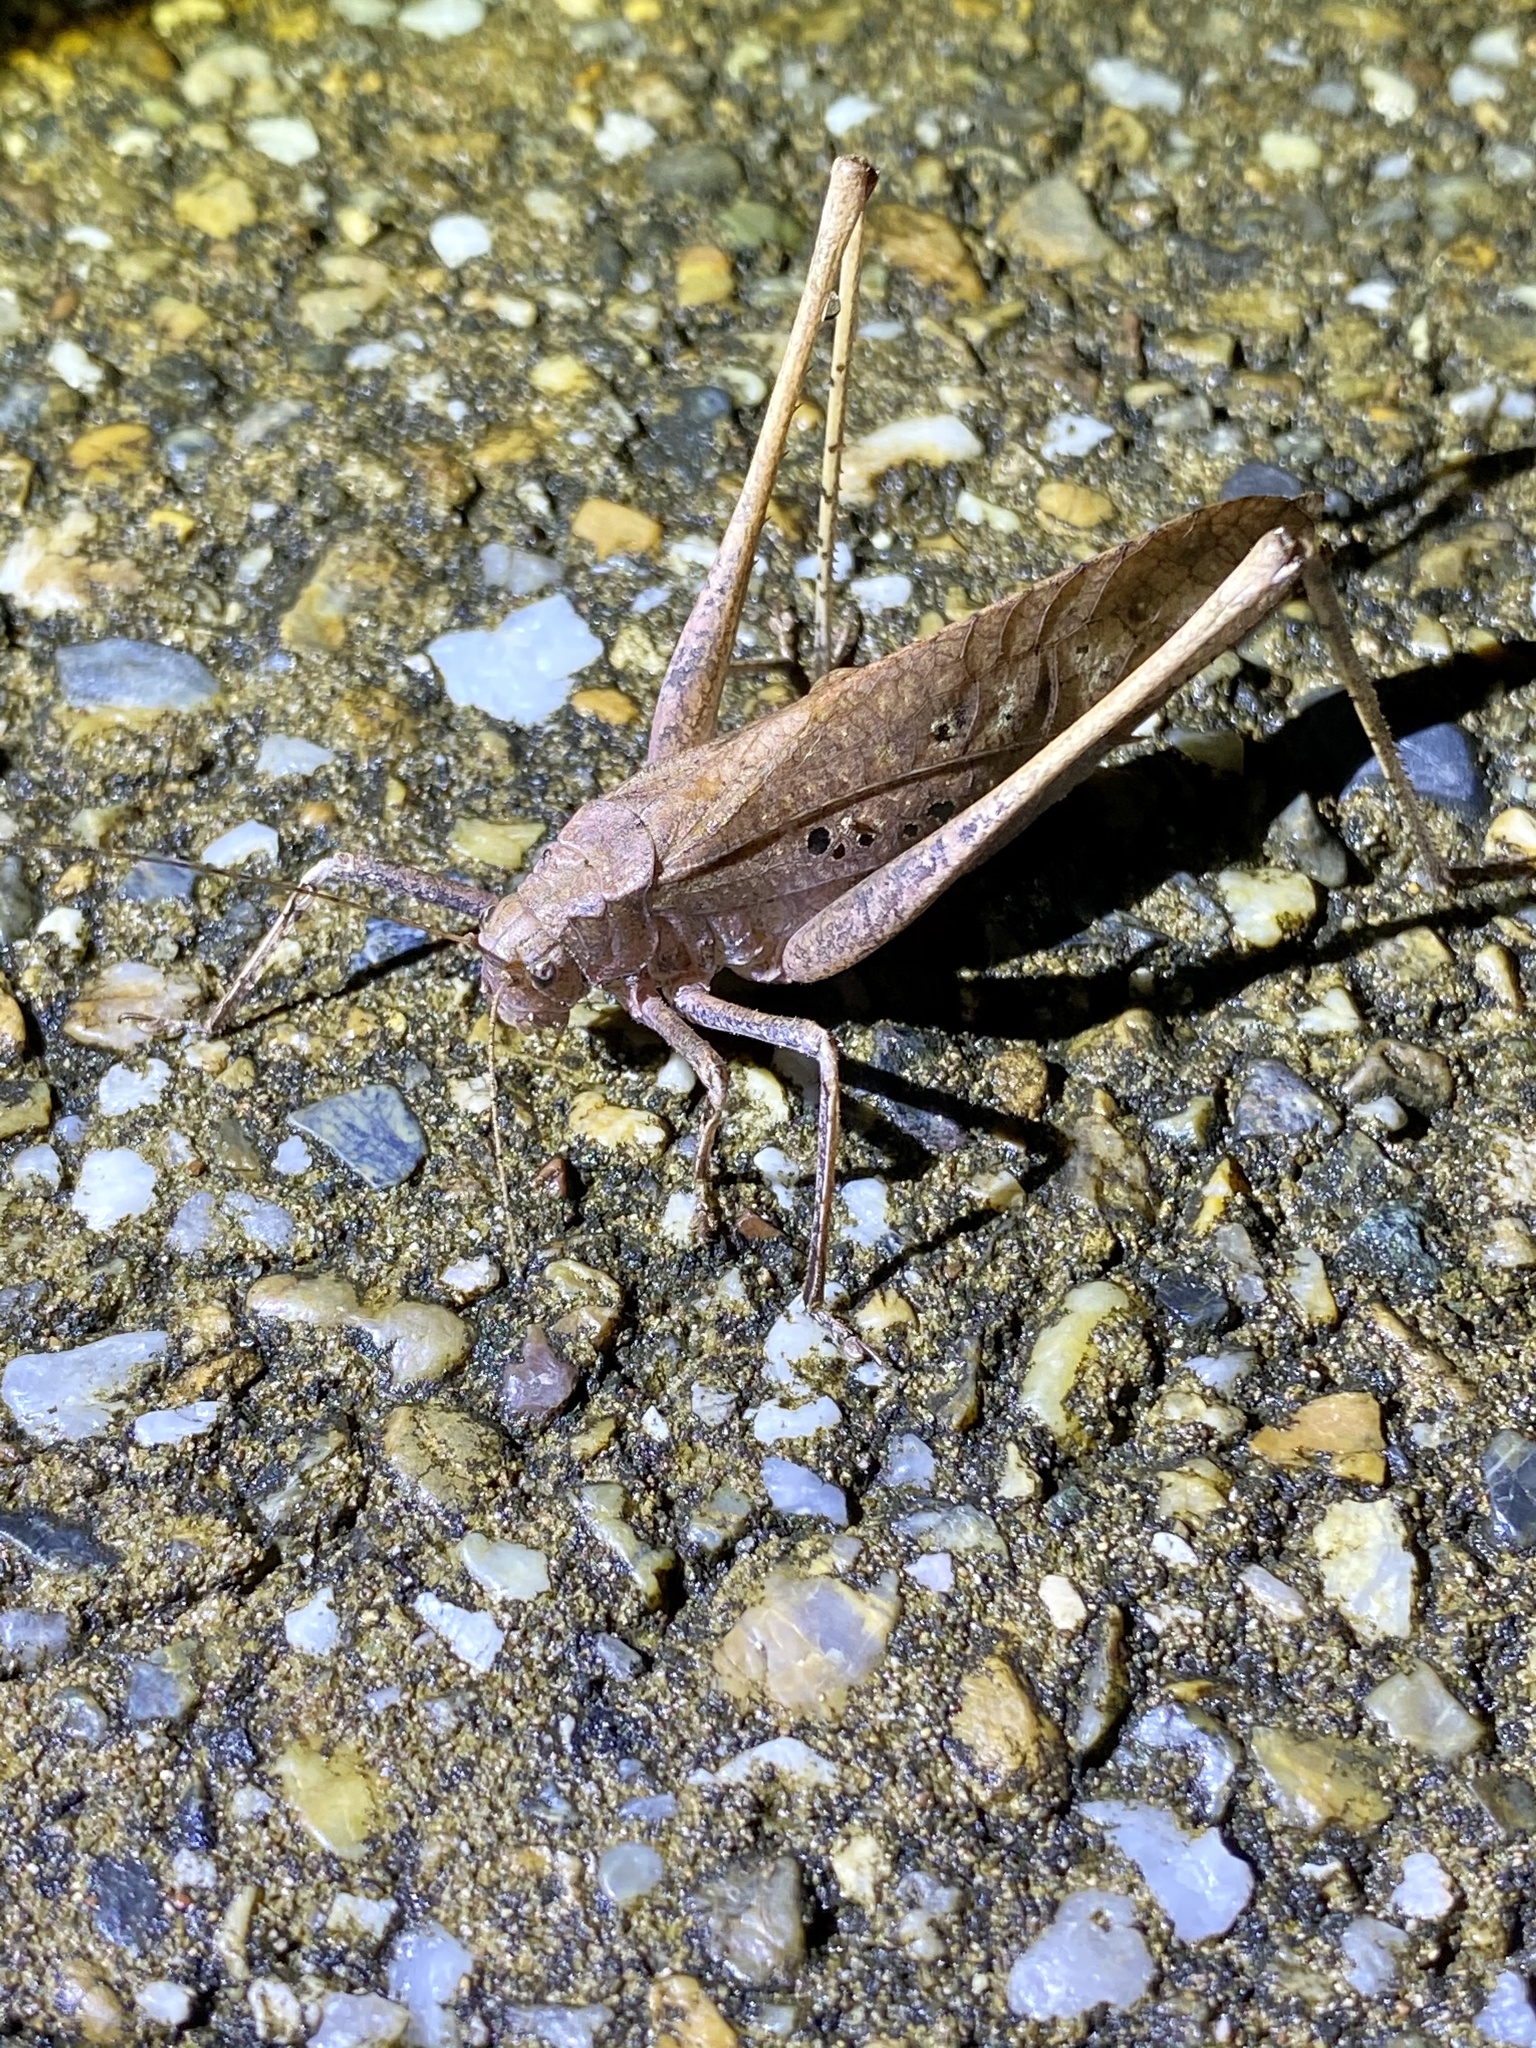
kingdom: Animalia
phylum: Arthropoda
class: Insecta
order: Orthoptera
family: Tettigoniidae
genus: Mecopoda
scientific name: Mecopoda niponensis
